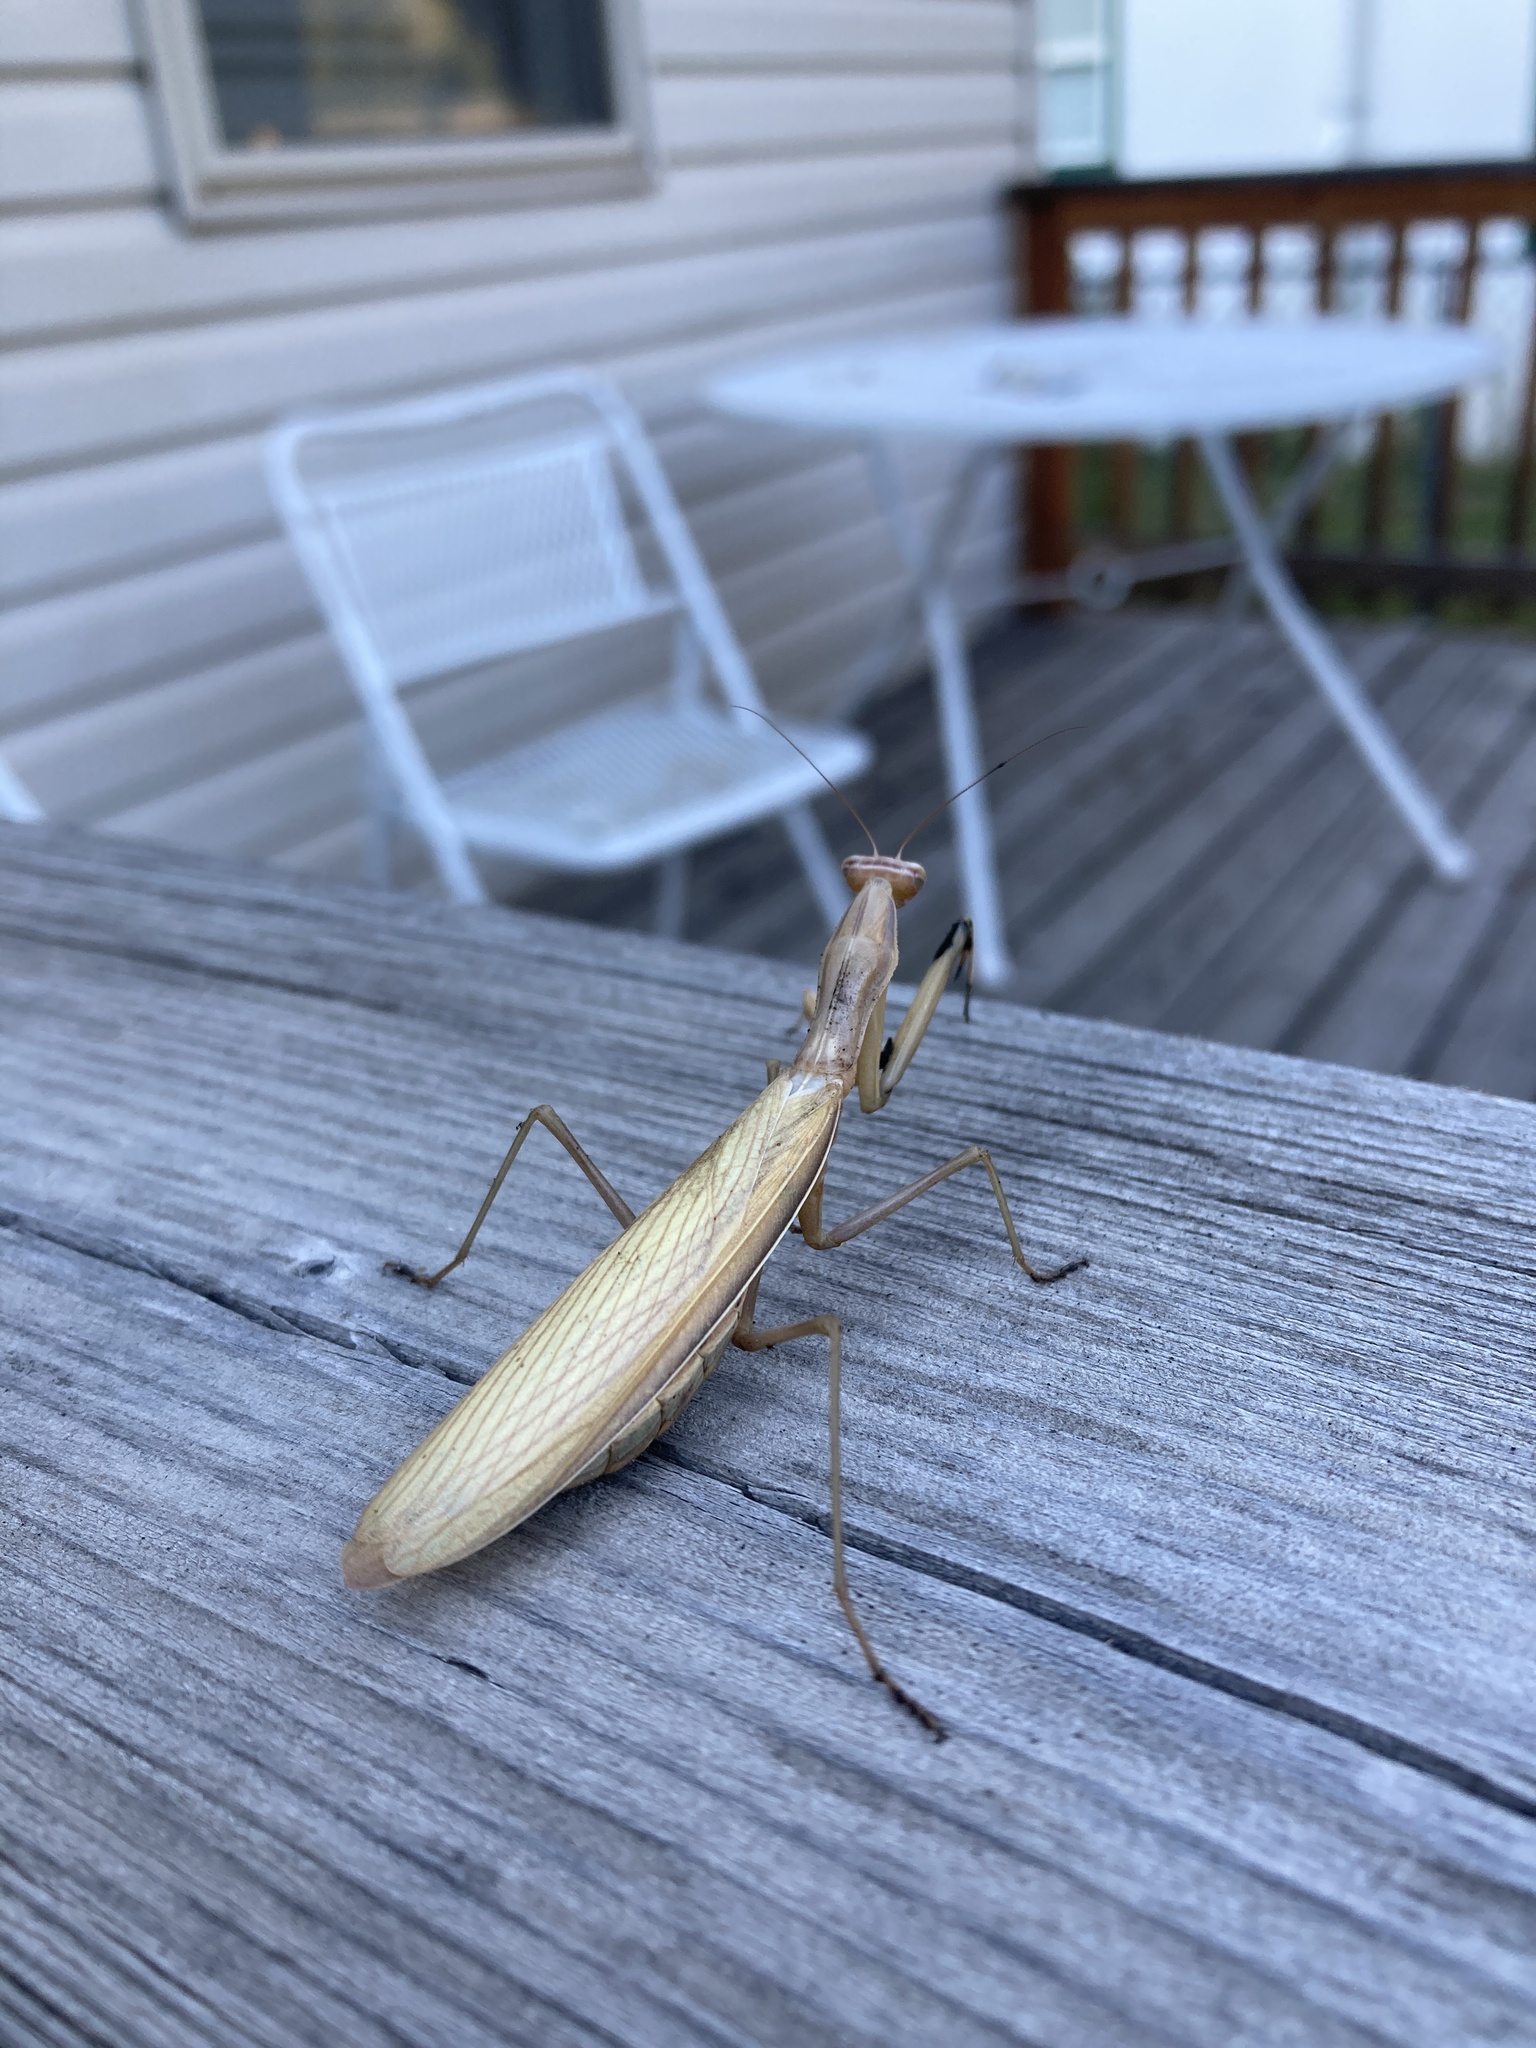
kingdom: Animalia
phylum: Arthropoda
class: Insecta
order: Mantodea
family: Mantidae
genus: Mantis
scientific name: Mantis religiosa
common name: Praying mantis
